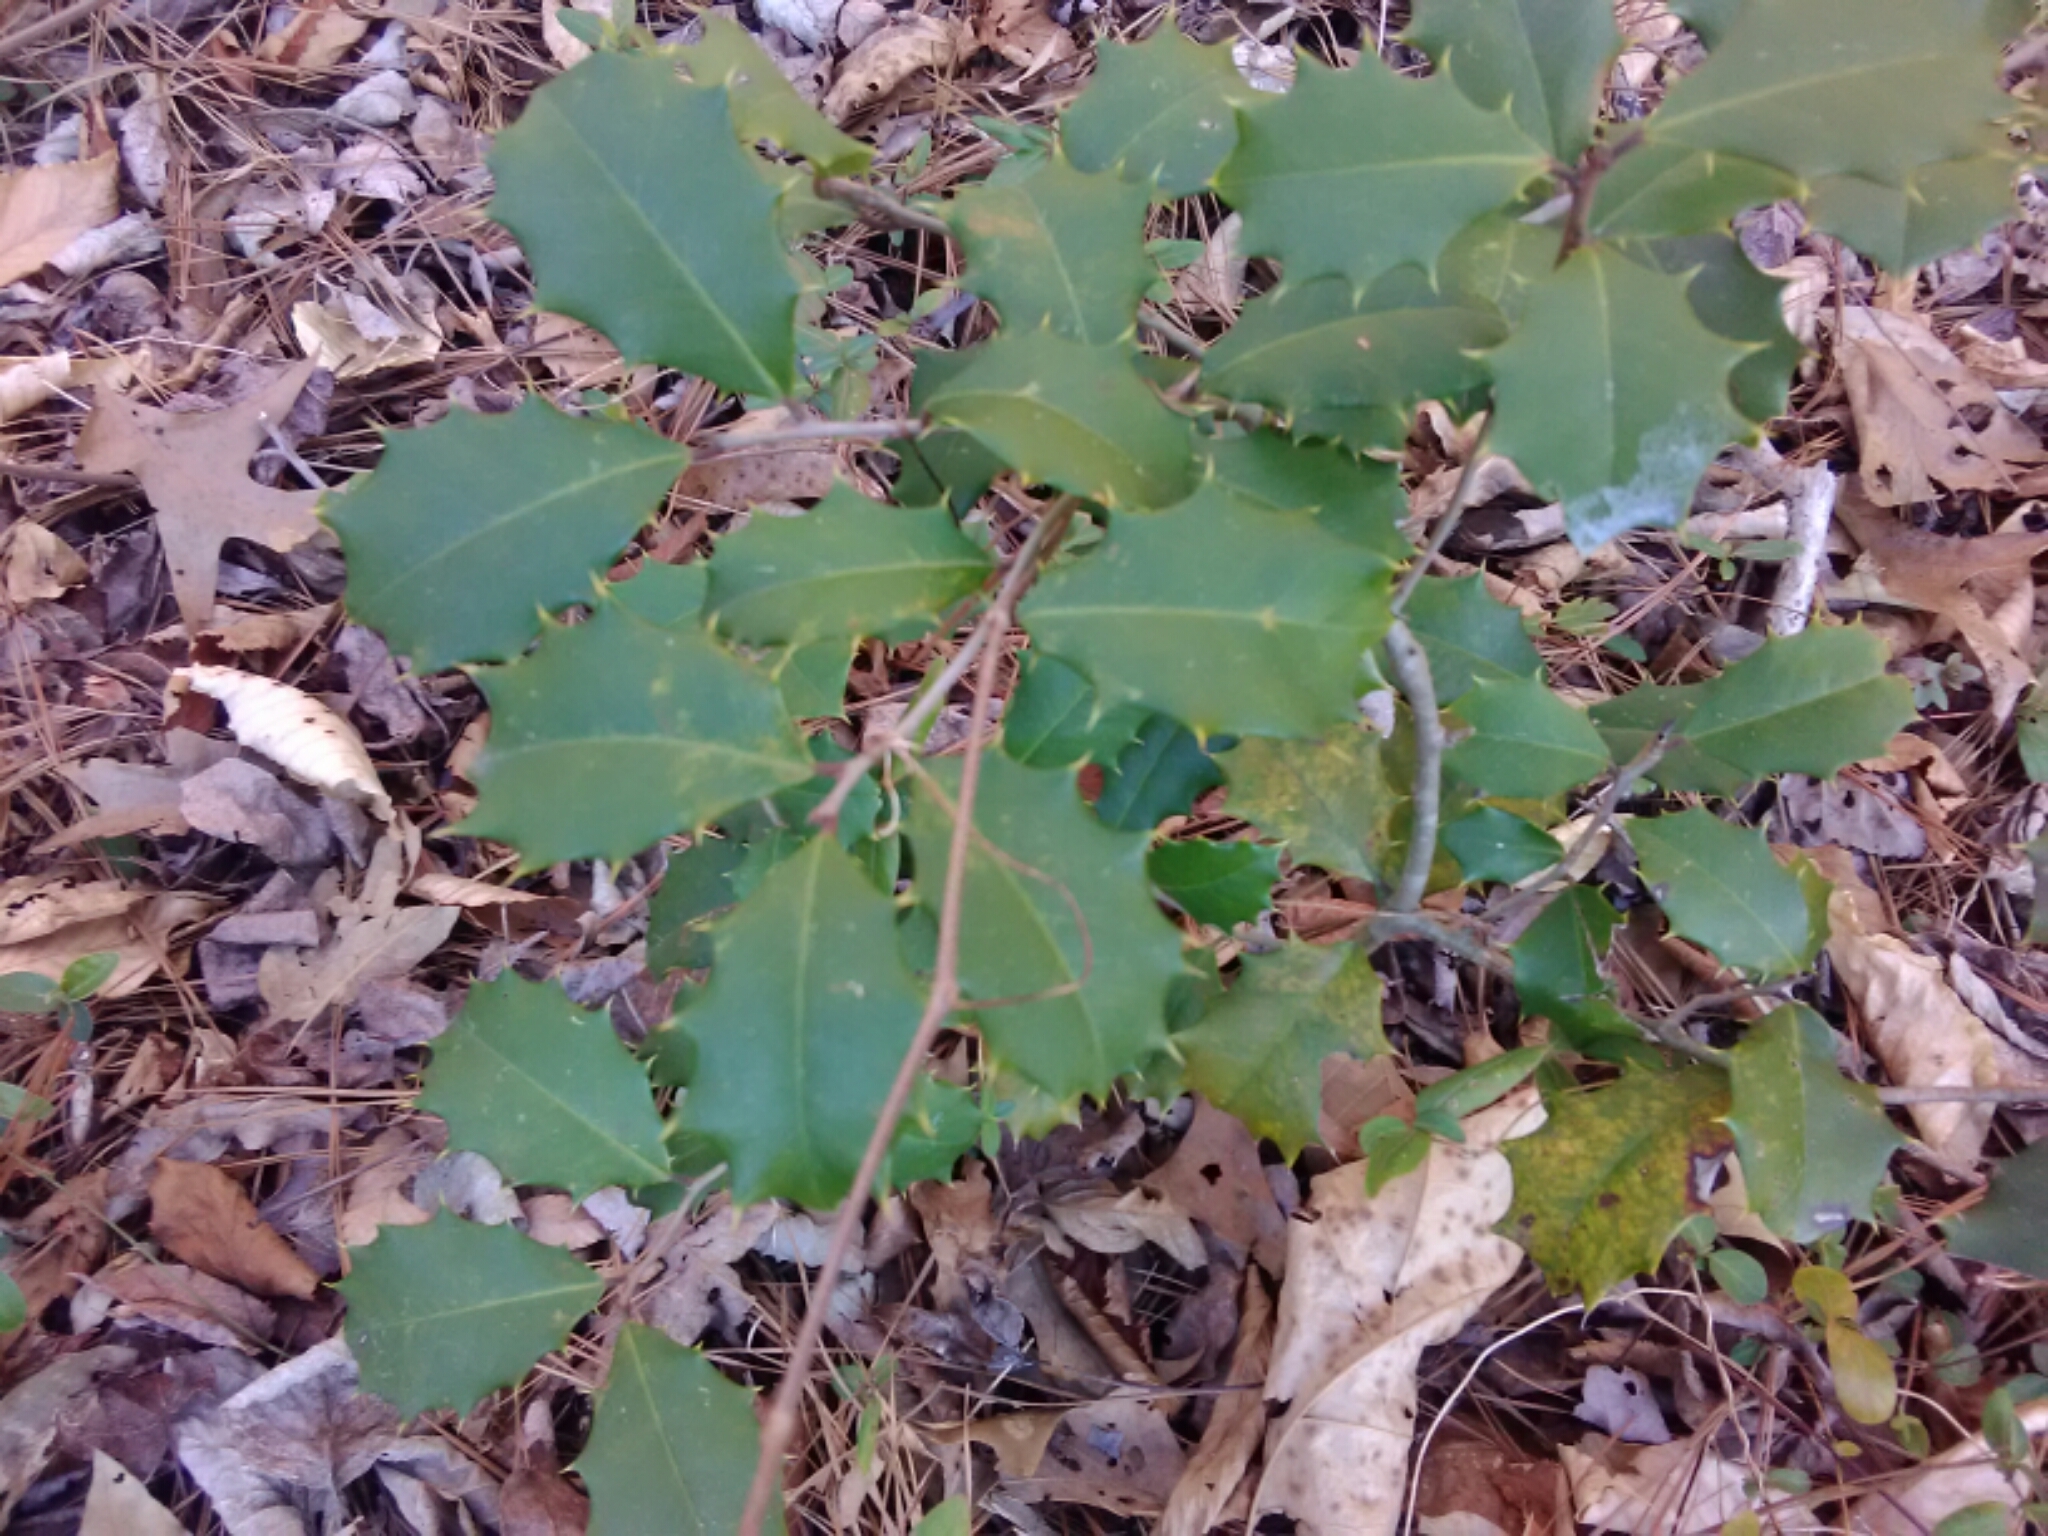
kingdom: Plantae
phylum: Tracheophyta
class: Magnoliopsida
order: Aquifoliales
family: Aquifoliaceae
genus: Ilex
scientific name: Ilex opaca
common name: American holly
